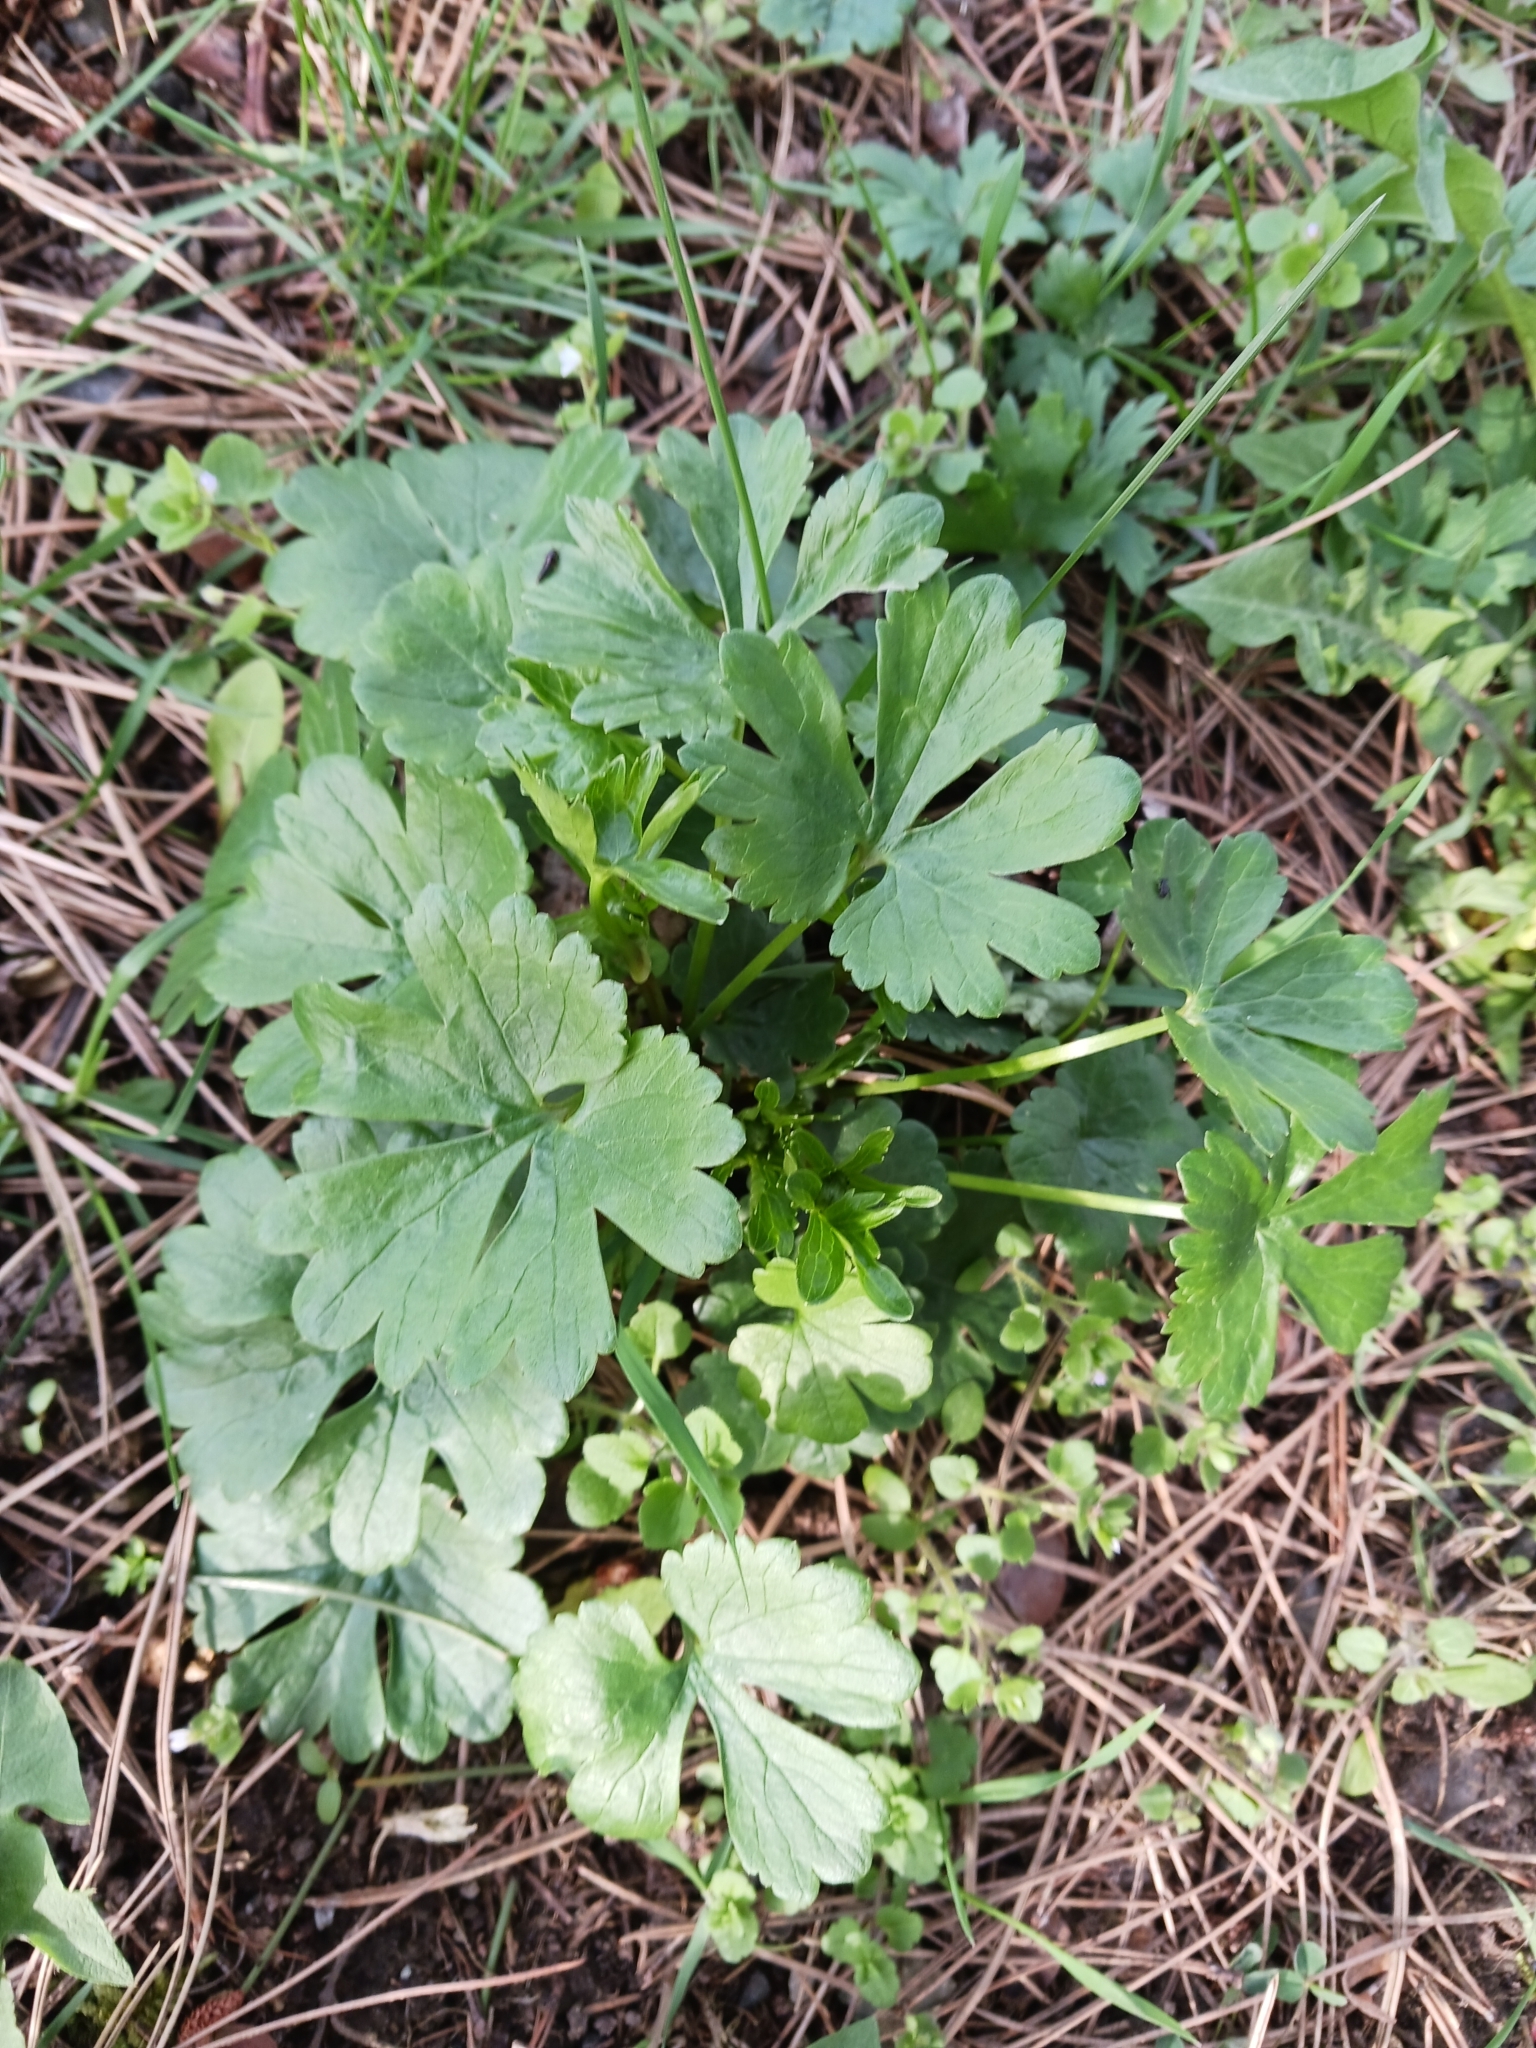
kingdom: Plantae
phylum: Tracheophyta
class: Magnoliopsida
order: Ranunculales
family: Ranunculaceae
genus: Ranunculus
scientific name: Ranunculus auricomus
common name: Goldilocks buttercup
